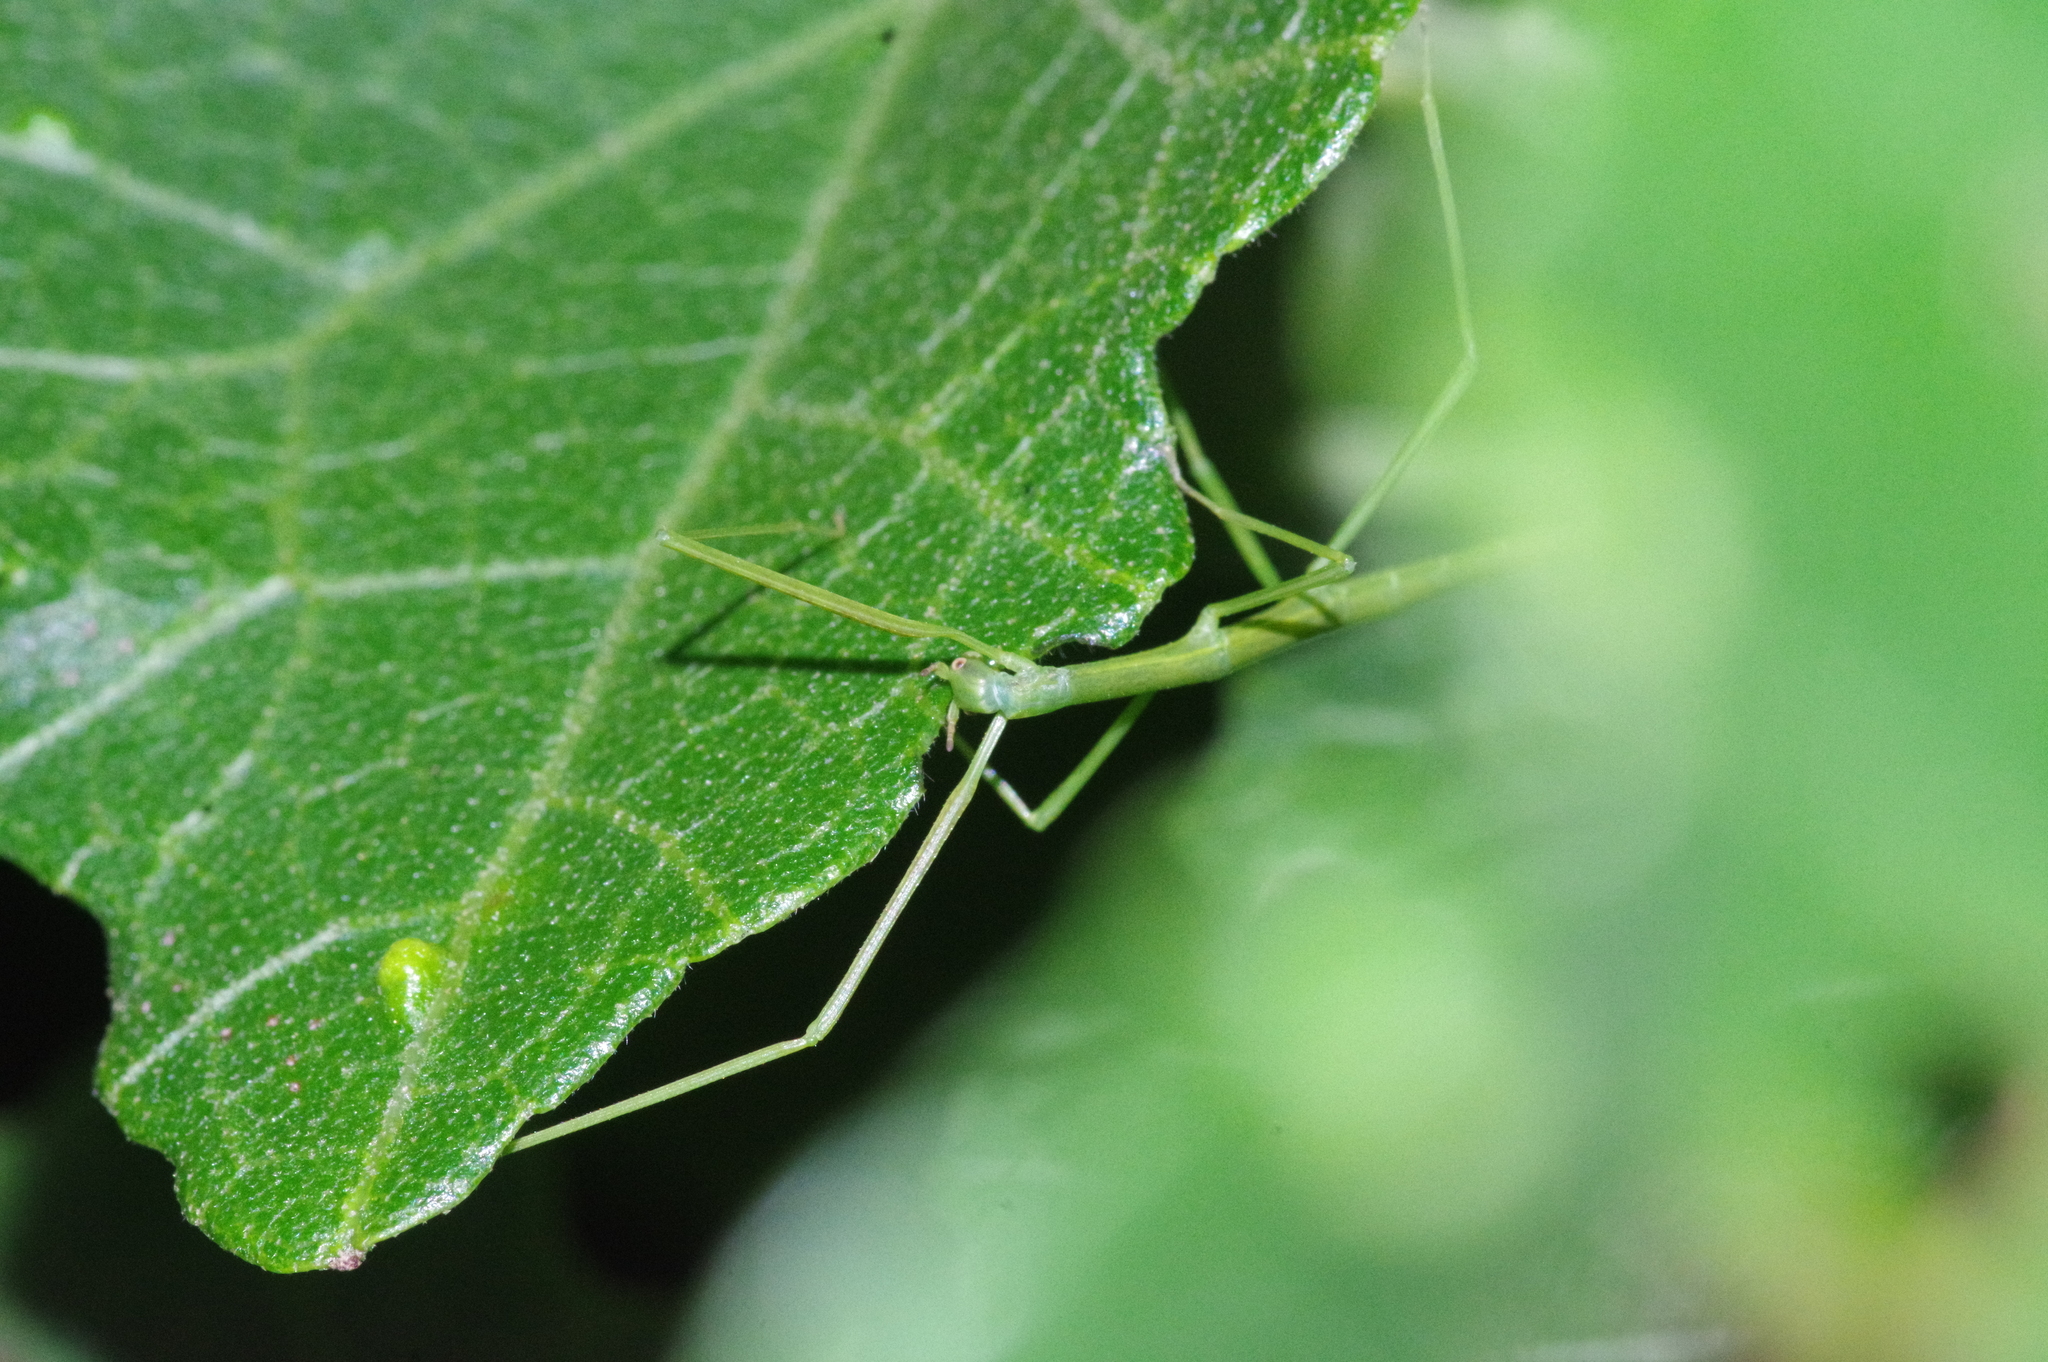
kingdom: Animalia
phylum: Arthropoda
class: Insecta
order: Phasmida
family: Phasmatidae
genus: Entoria
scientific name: Entoria miyakoensis
